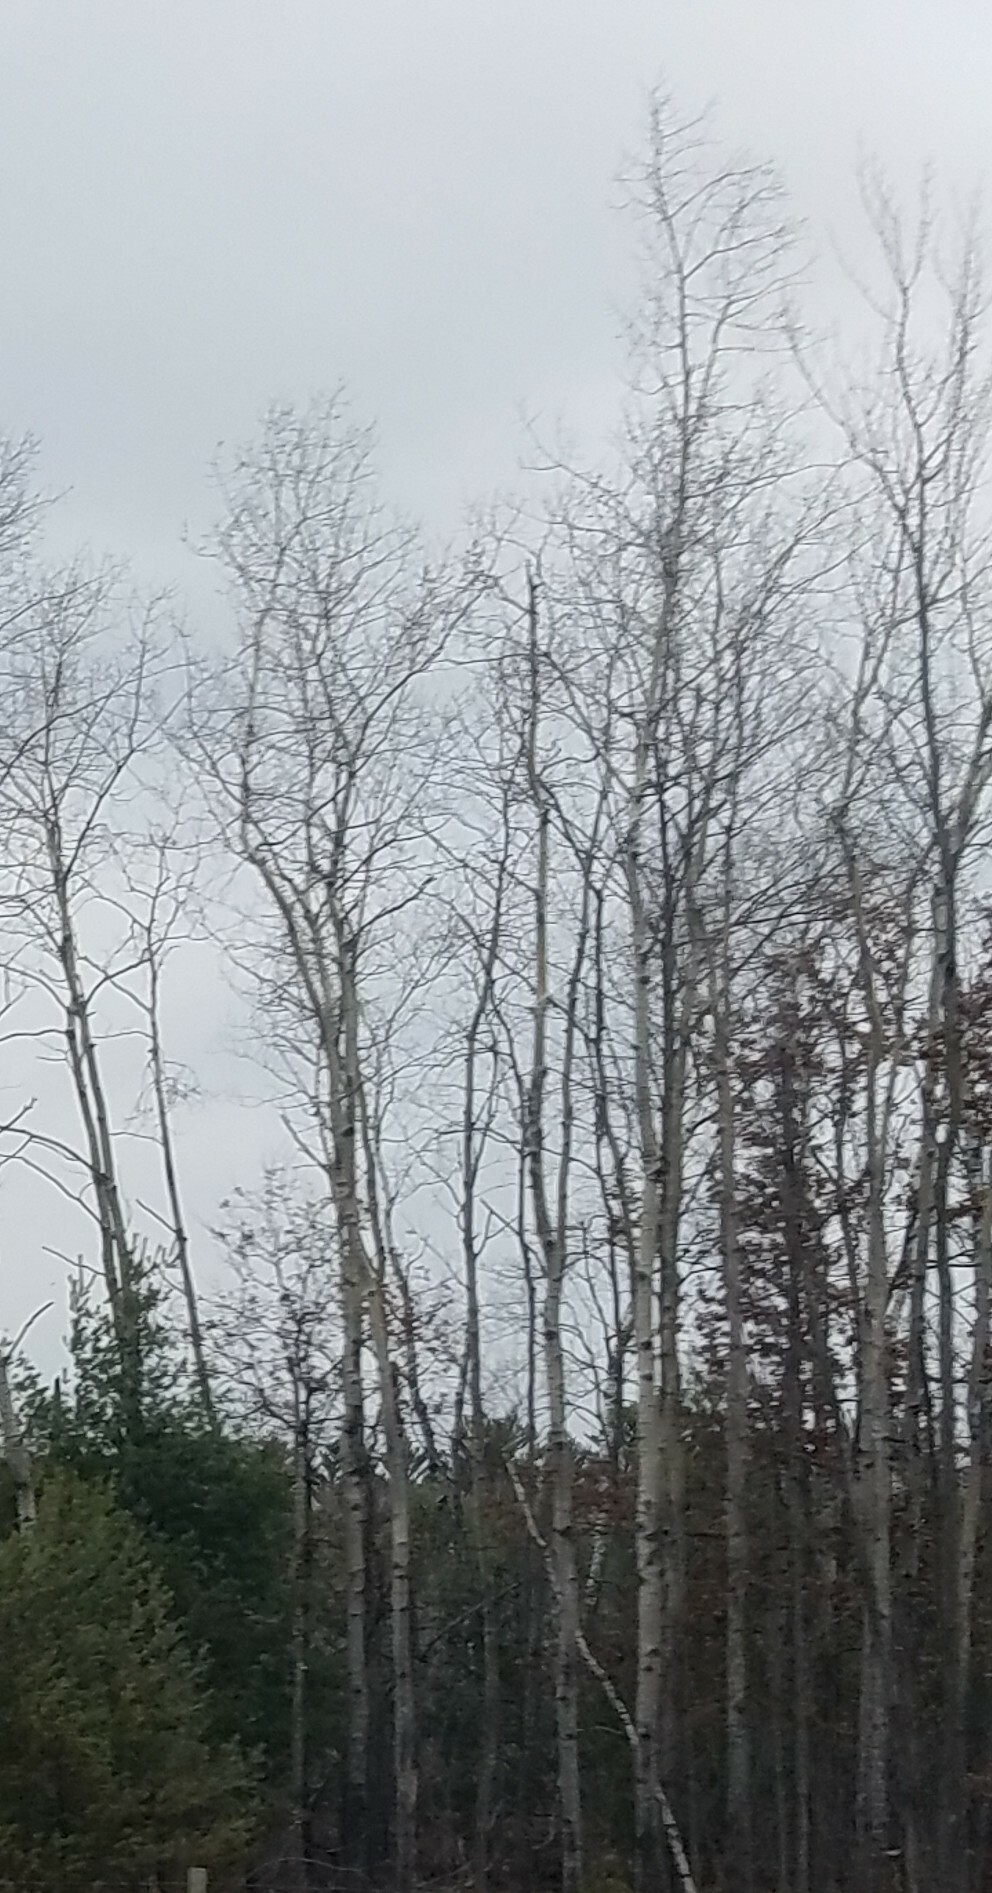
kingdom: Plantae
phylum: Tracheophyta
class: Magnoliopsida
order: Malpighiales
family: Salicaceae
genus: Populus
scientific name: Populus tremuloides
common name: Quaking aspen
